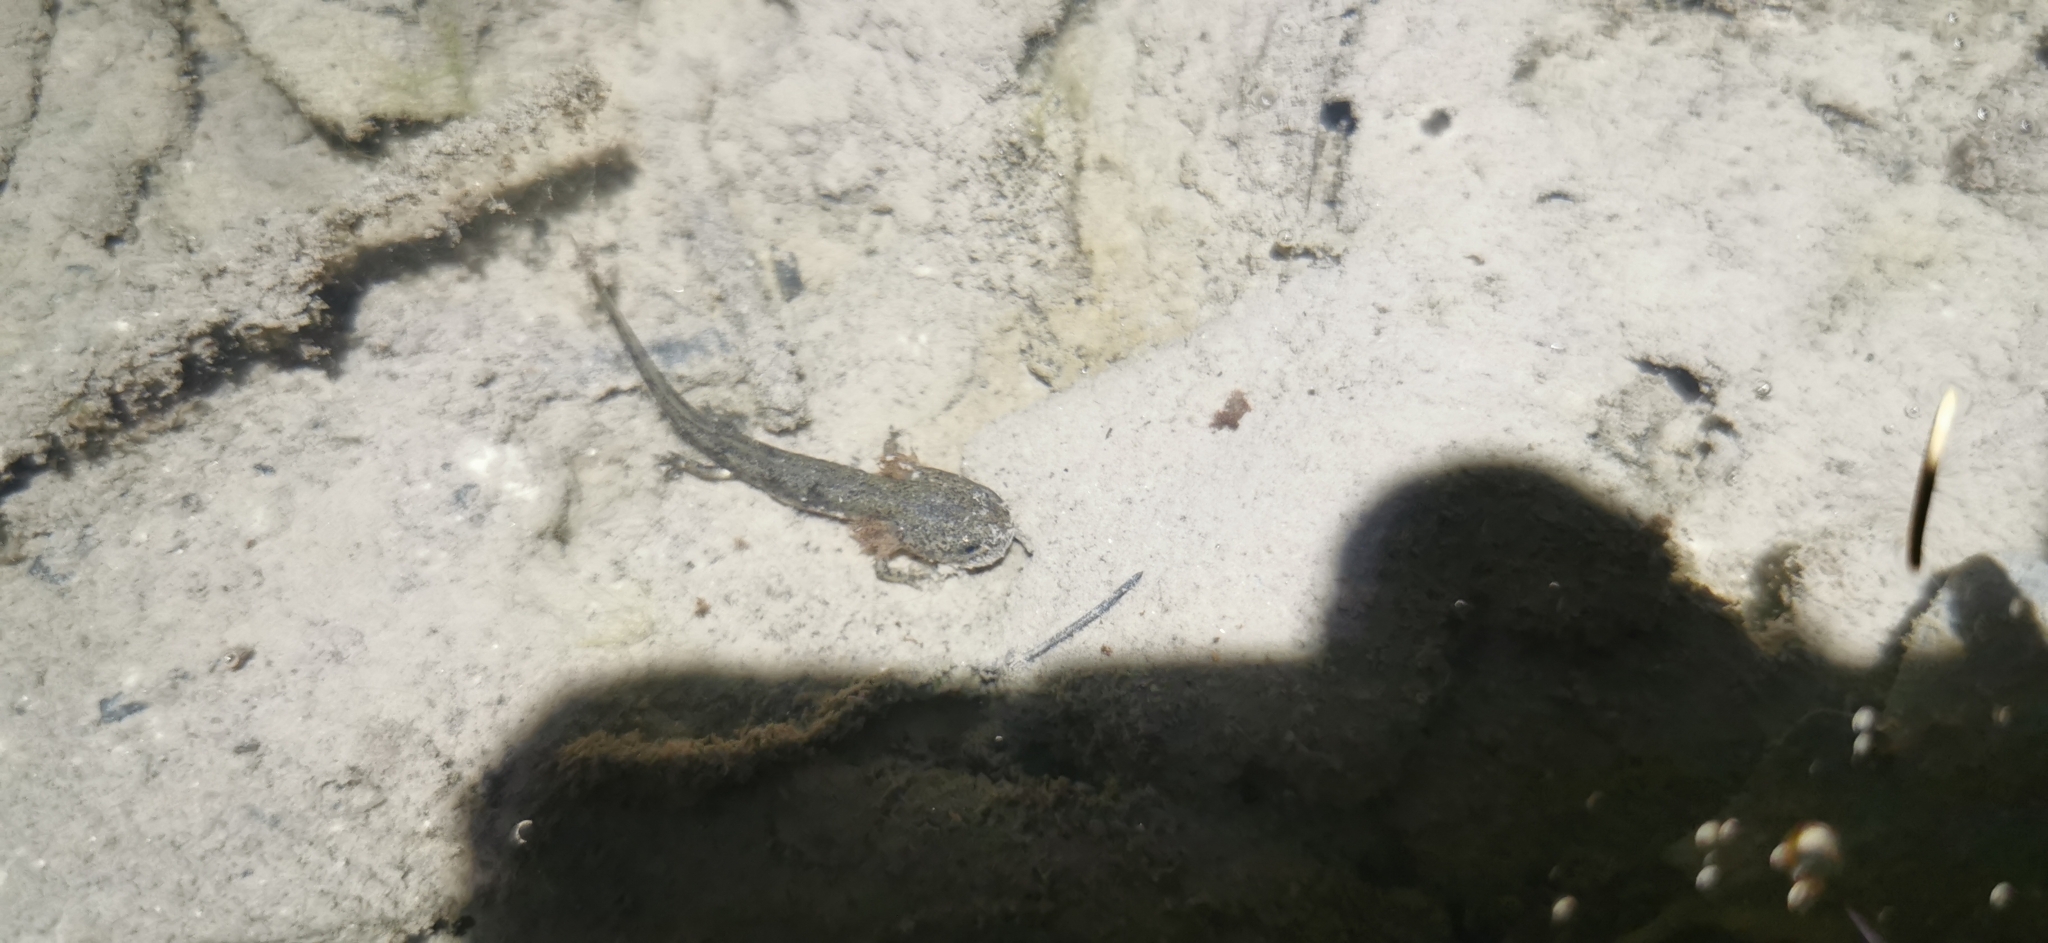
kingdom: Animalia
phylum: Chordata
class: Amphibia
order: Caudata
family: Salamandridae
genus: Salamandra
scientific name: Salamandra salamandra
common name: Fire salamander
